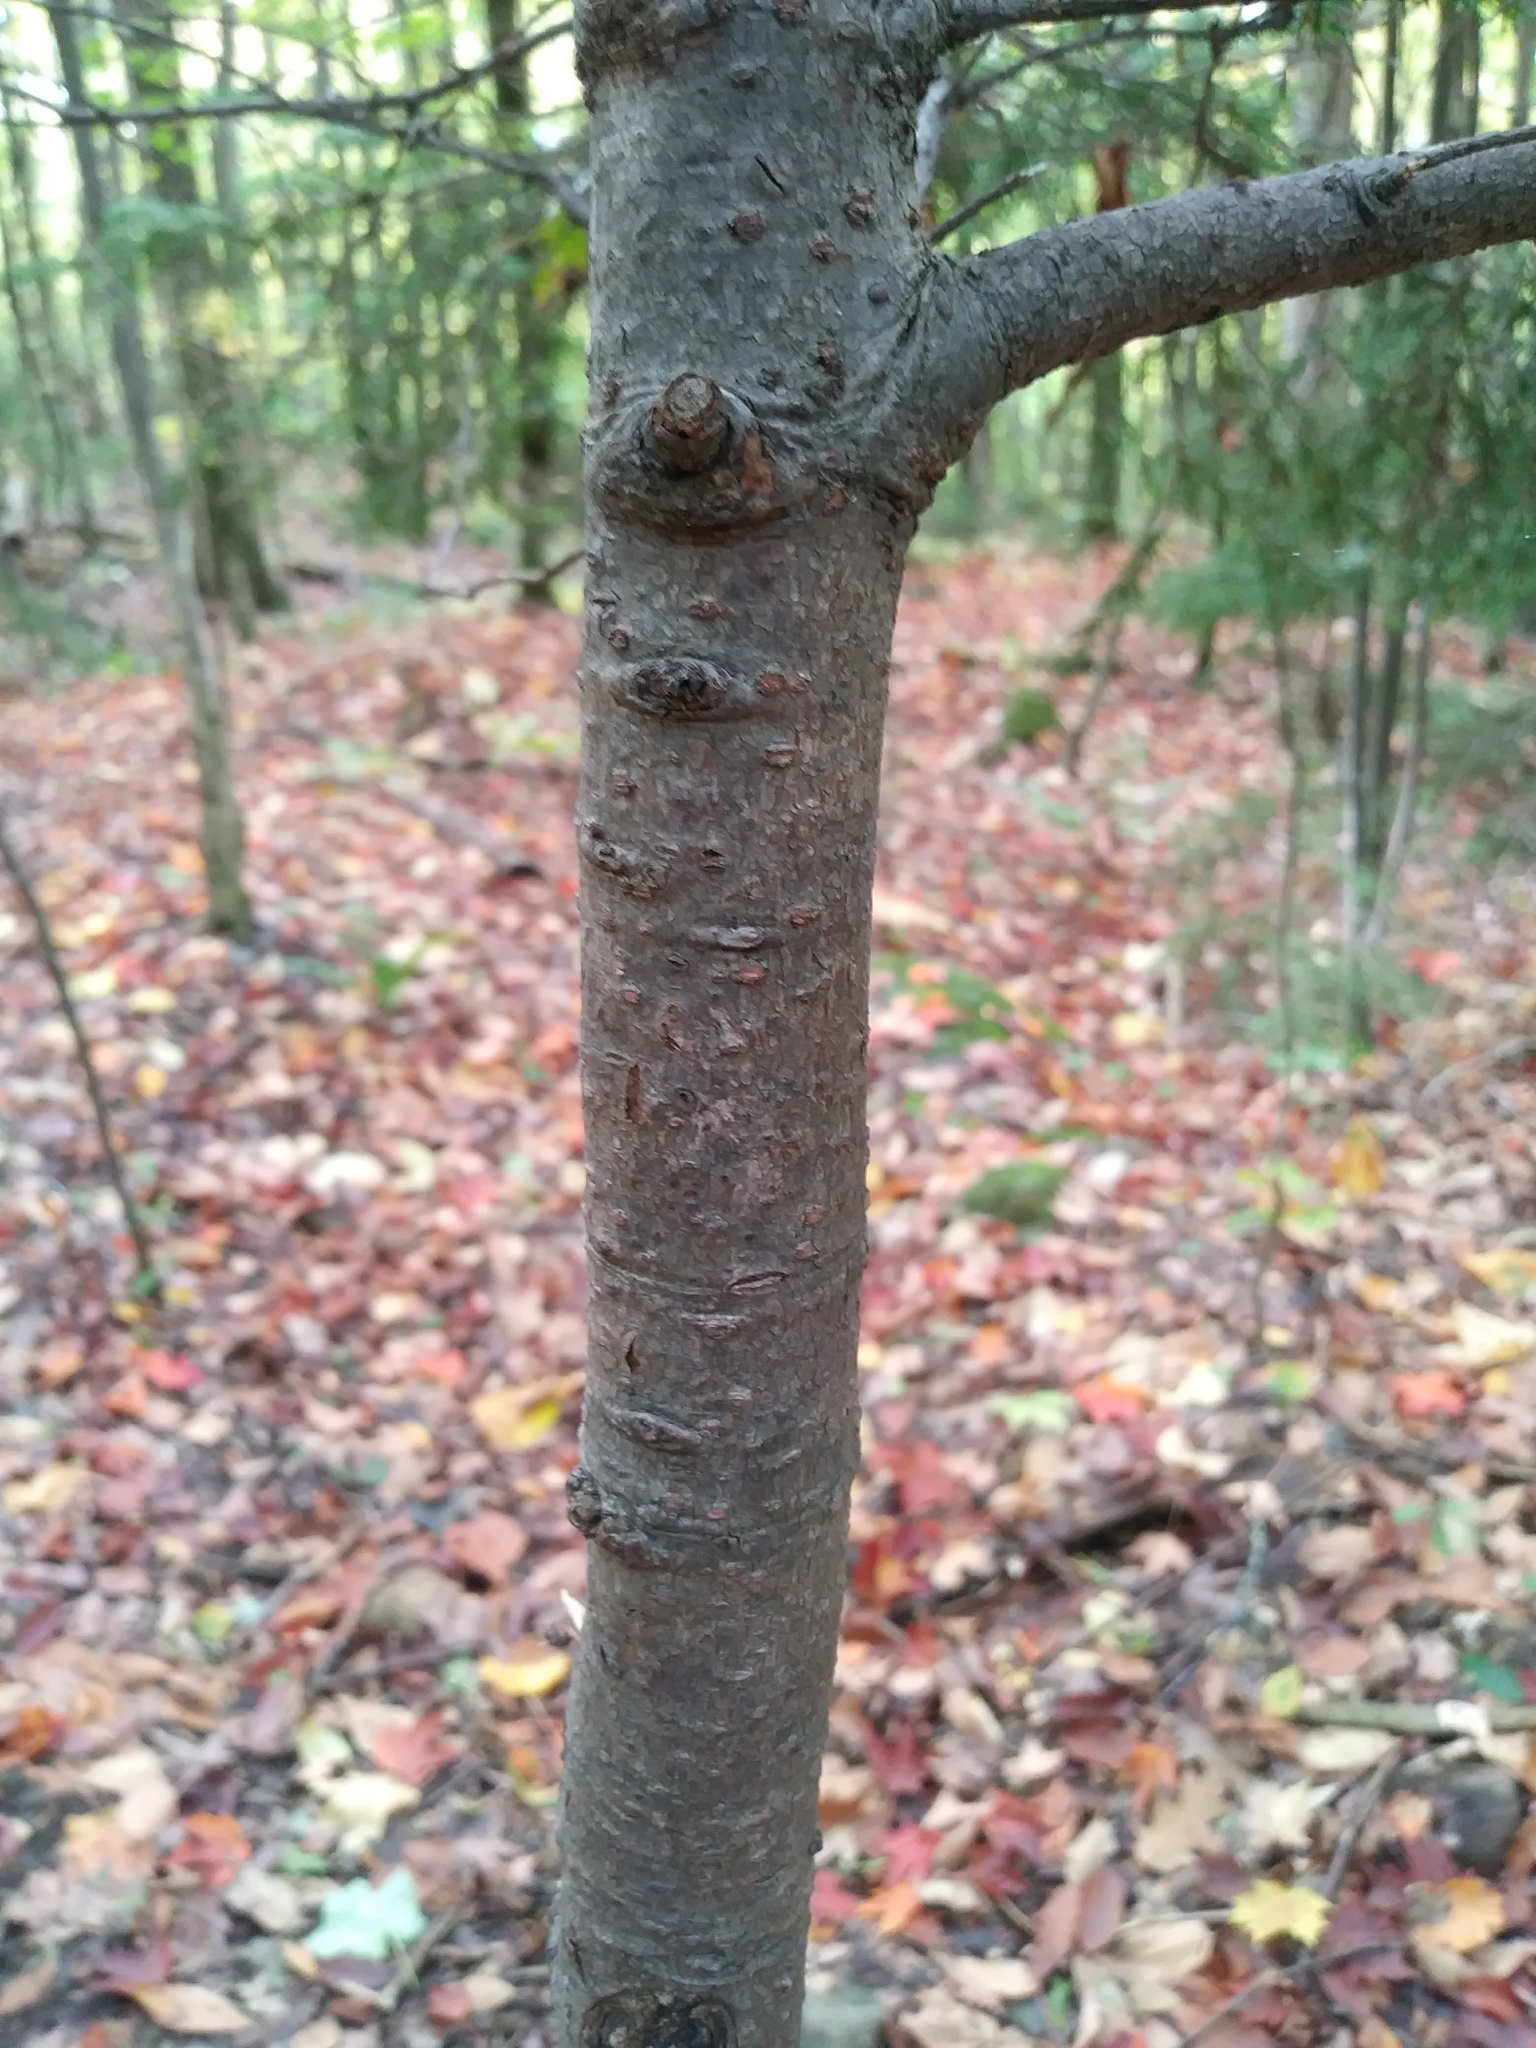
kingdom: Plantae
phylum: Tracheophyta
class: Pinopsida
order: Pinales
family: Pinaceae
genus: Abies
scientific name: Abies balsamea
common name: Balsam fir
